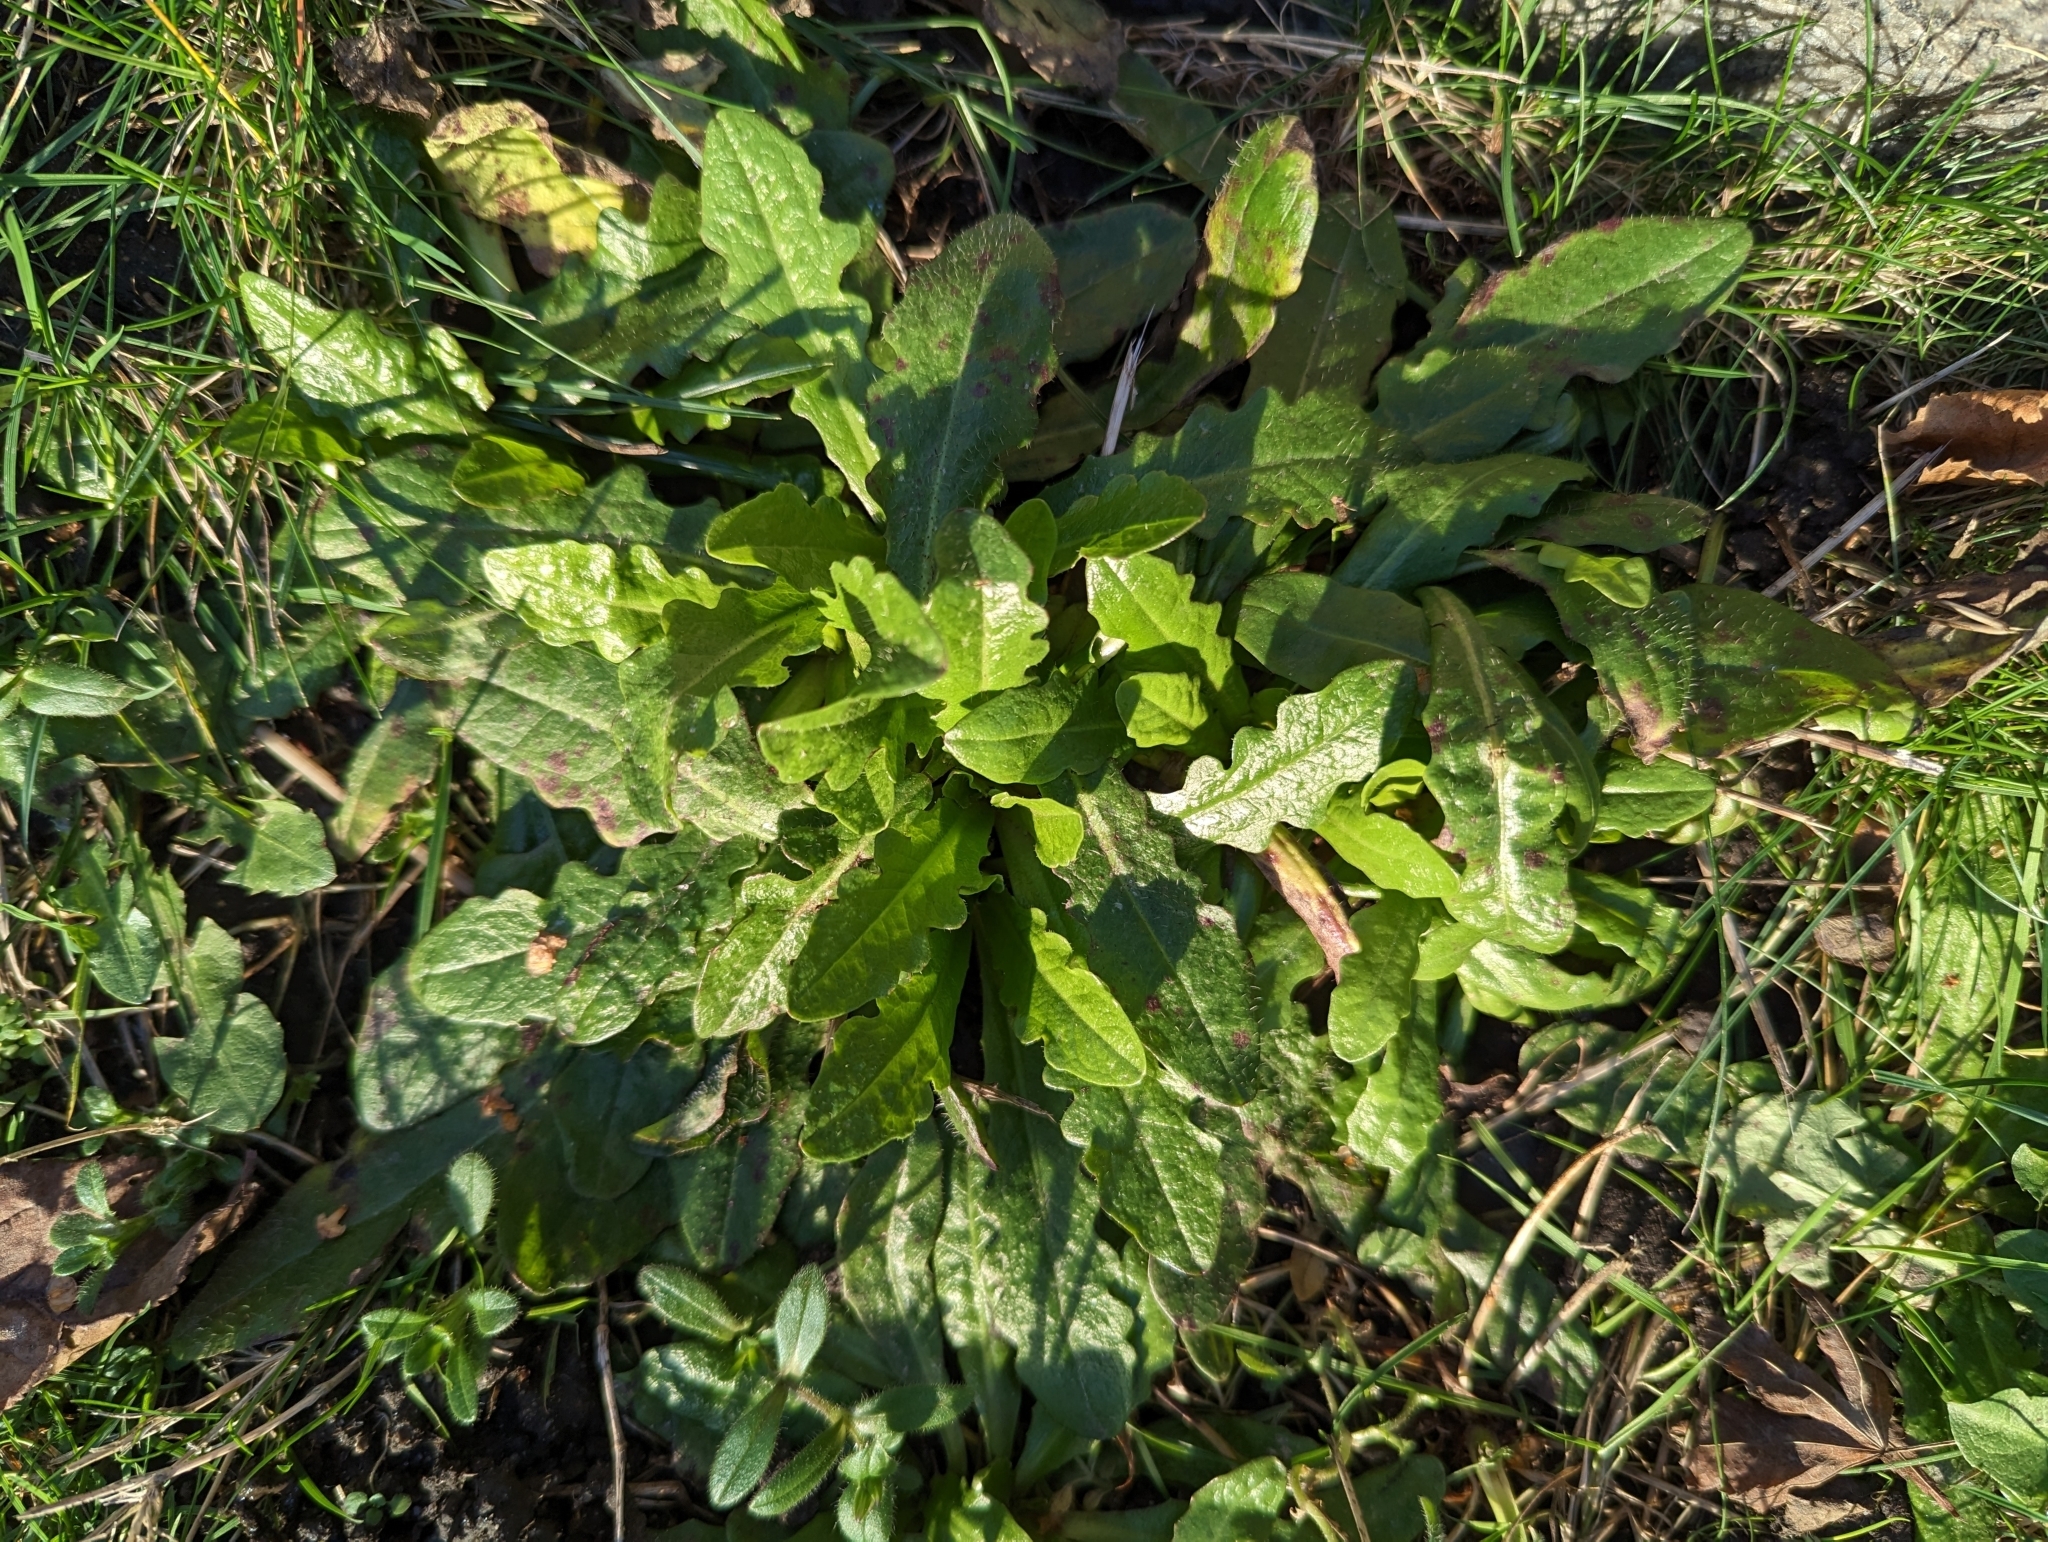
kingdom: Plantae
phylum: Tracheophyta
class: Magnoliopsida
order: Asterales
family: Asteraceae
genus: Hypochaeris
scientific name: Hypochaeris radicata
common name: Flatweed
